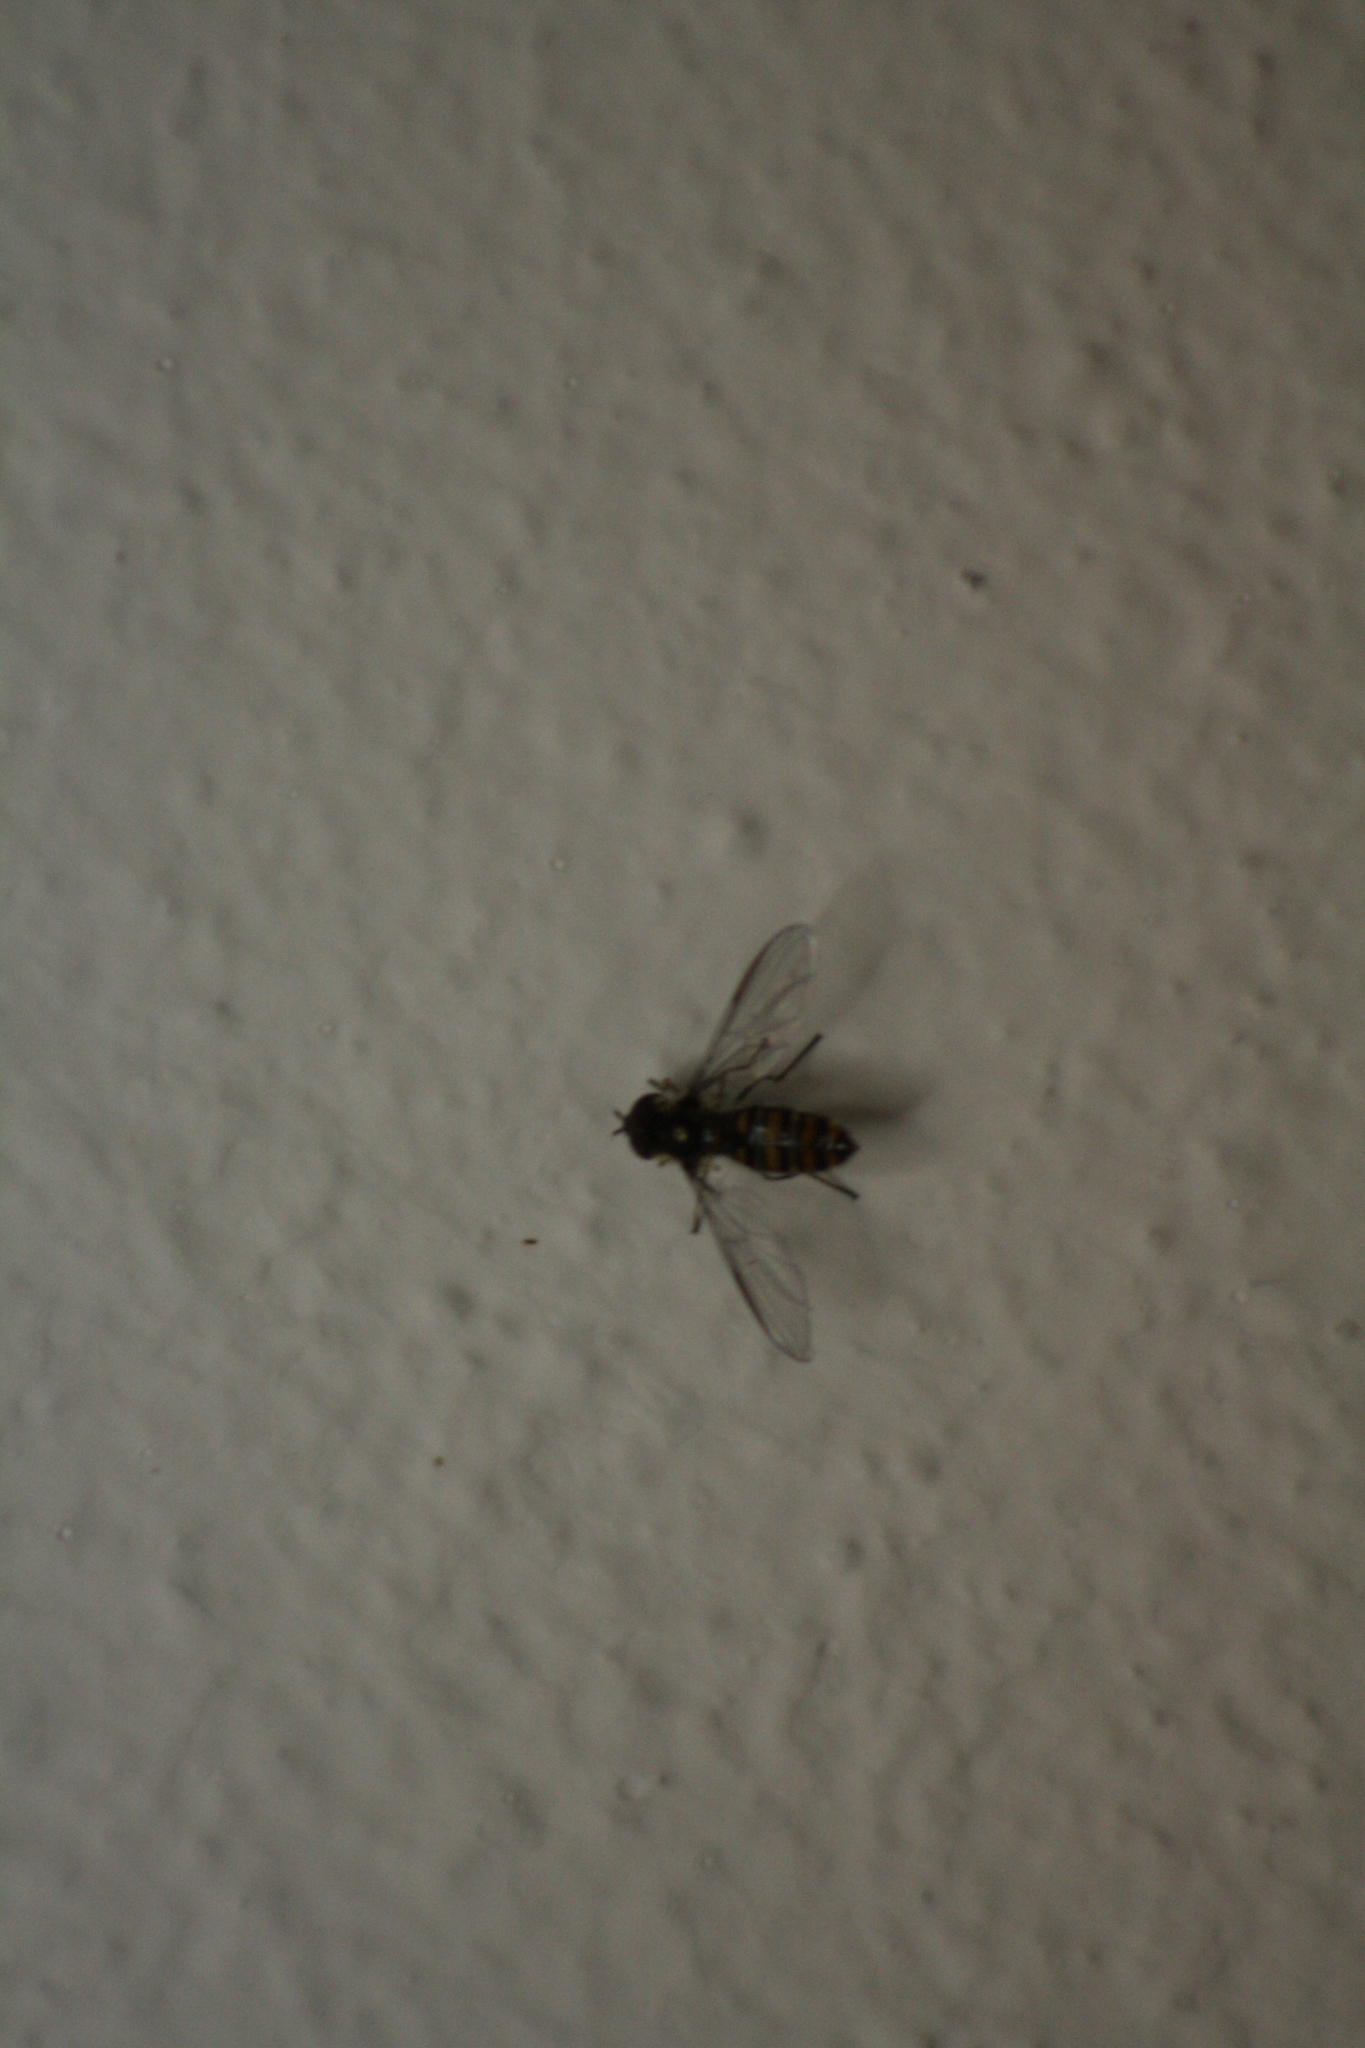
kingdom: Animalia
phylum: Arthropoda
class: Insecta
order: Diptera
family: Syrphidae
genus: Episyrphus
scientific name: Episyrphus balteatus
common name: Marmalade hoverfly
